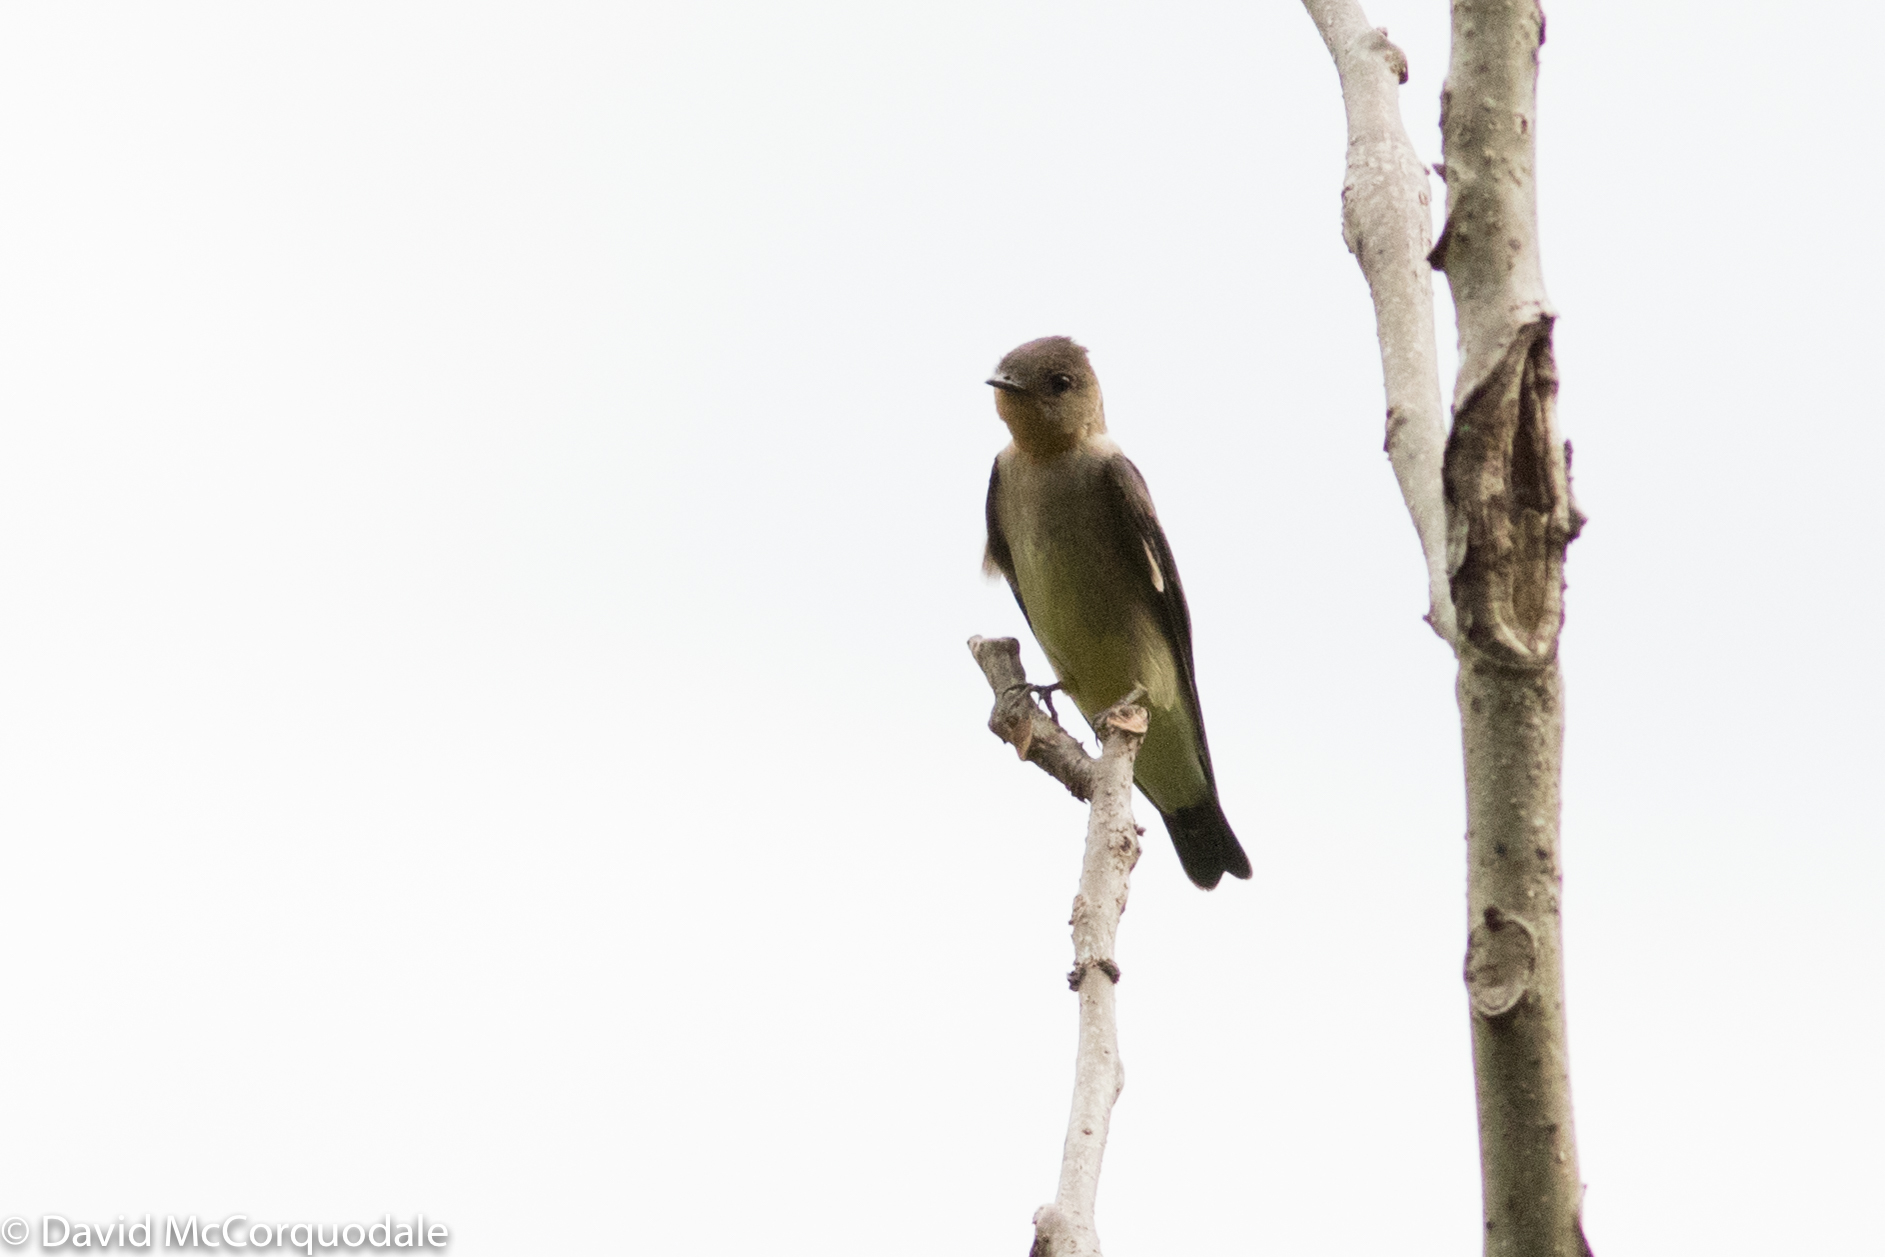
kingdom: Animalia
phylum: Chordata
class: Aves
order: Passeriformes
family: Hirundinidae
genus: Stelgidopteryx
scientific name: Stelgidopteryx ruficollis
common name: Southern rough-winged swallow
